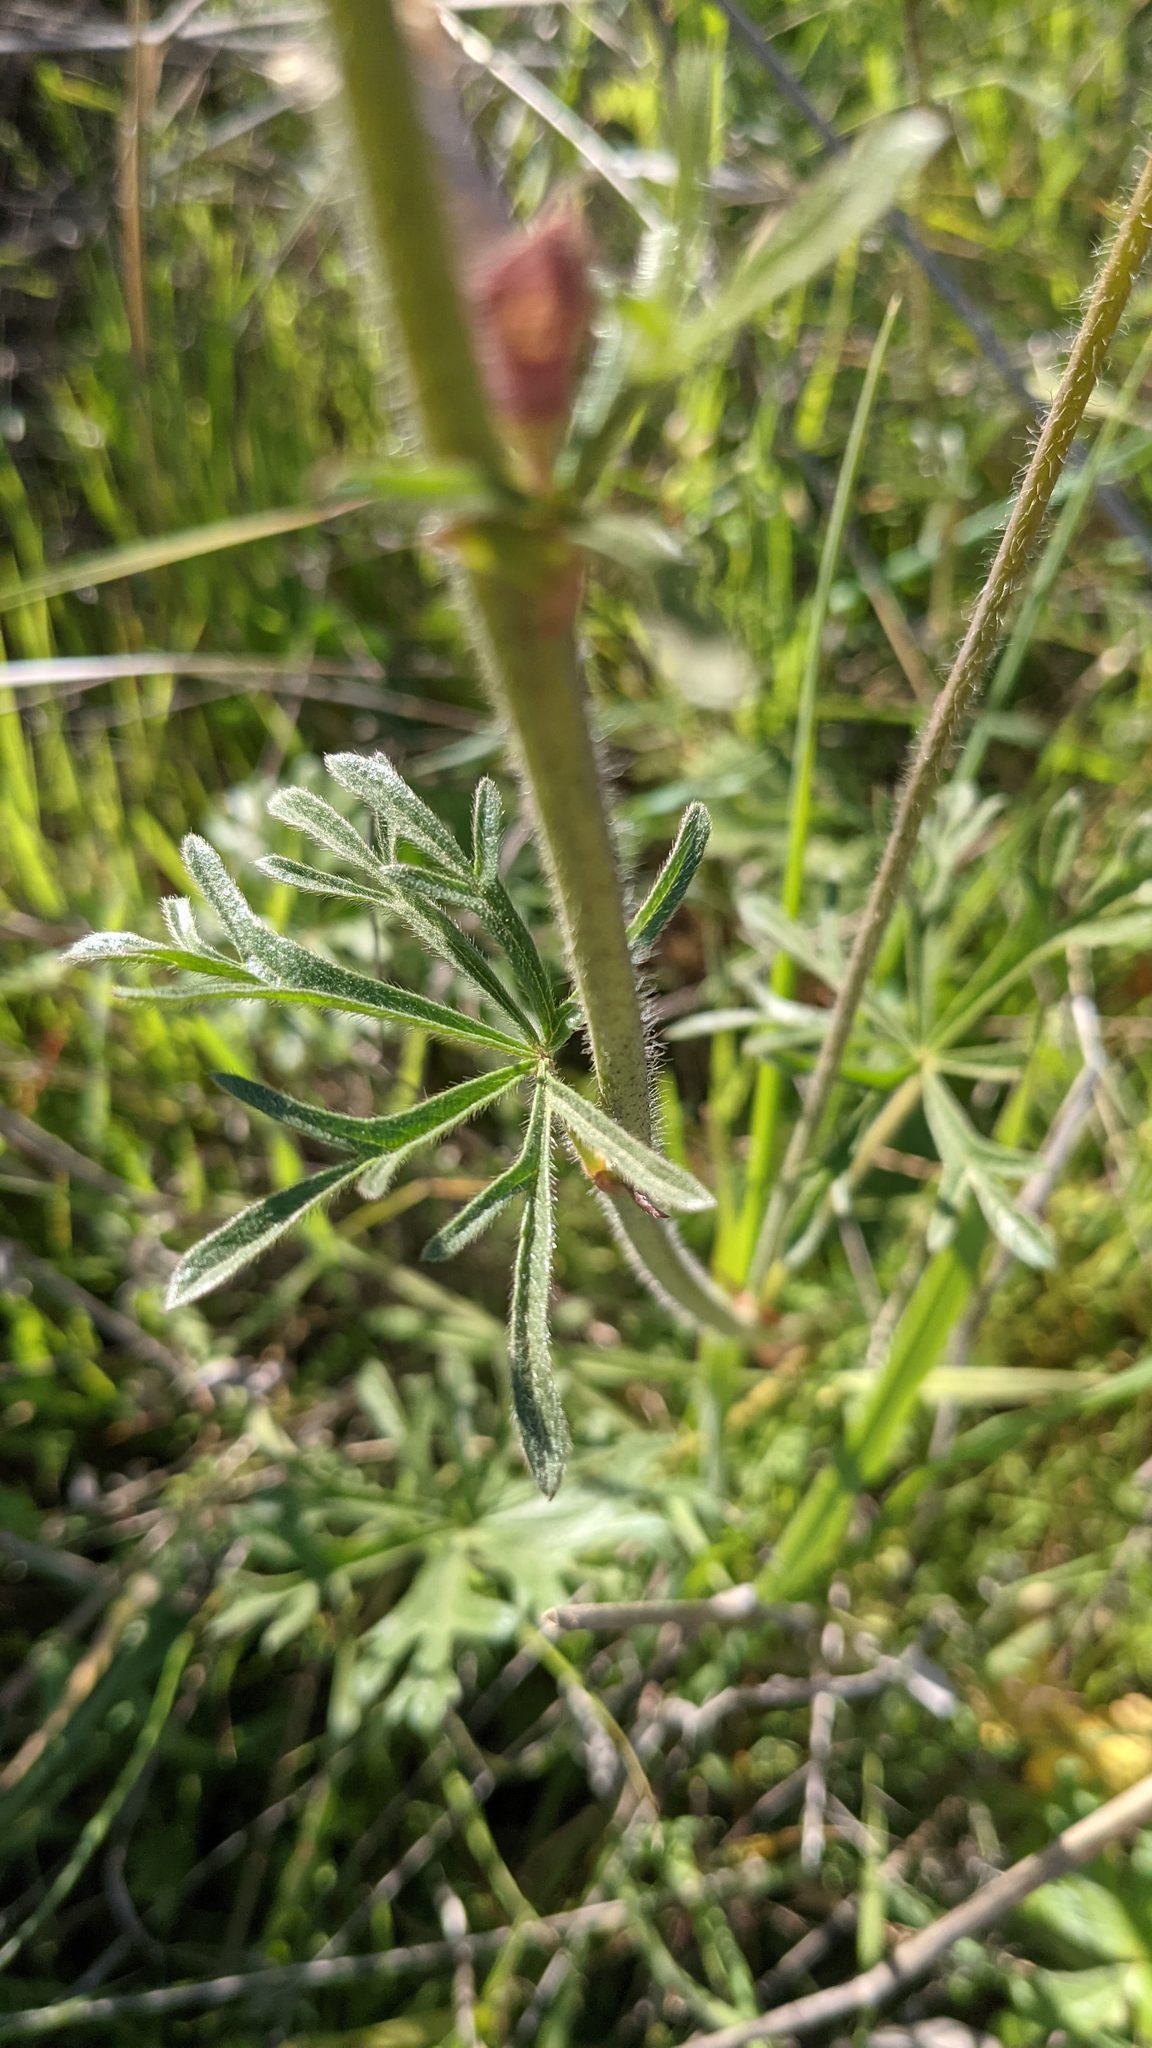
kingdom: Plantae
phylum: Tracheophyta
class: Magnoliopsida
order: Malvales
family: Malvaceae
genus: Sidalcea
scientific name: Sidalcea malviflora
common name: Greek mallow
